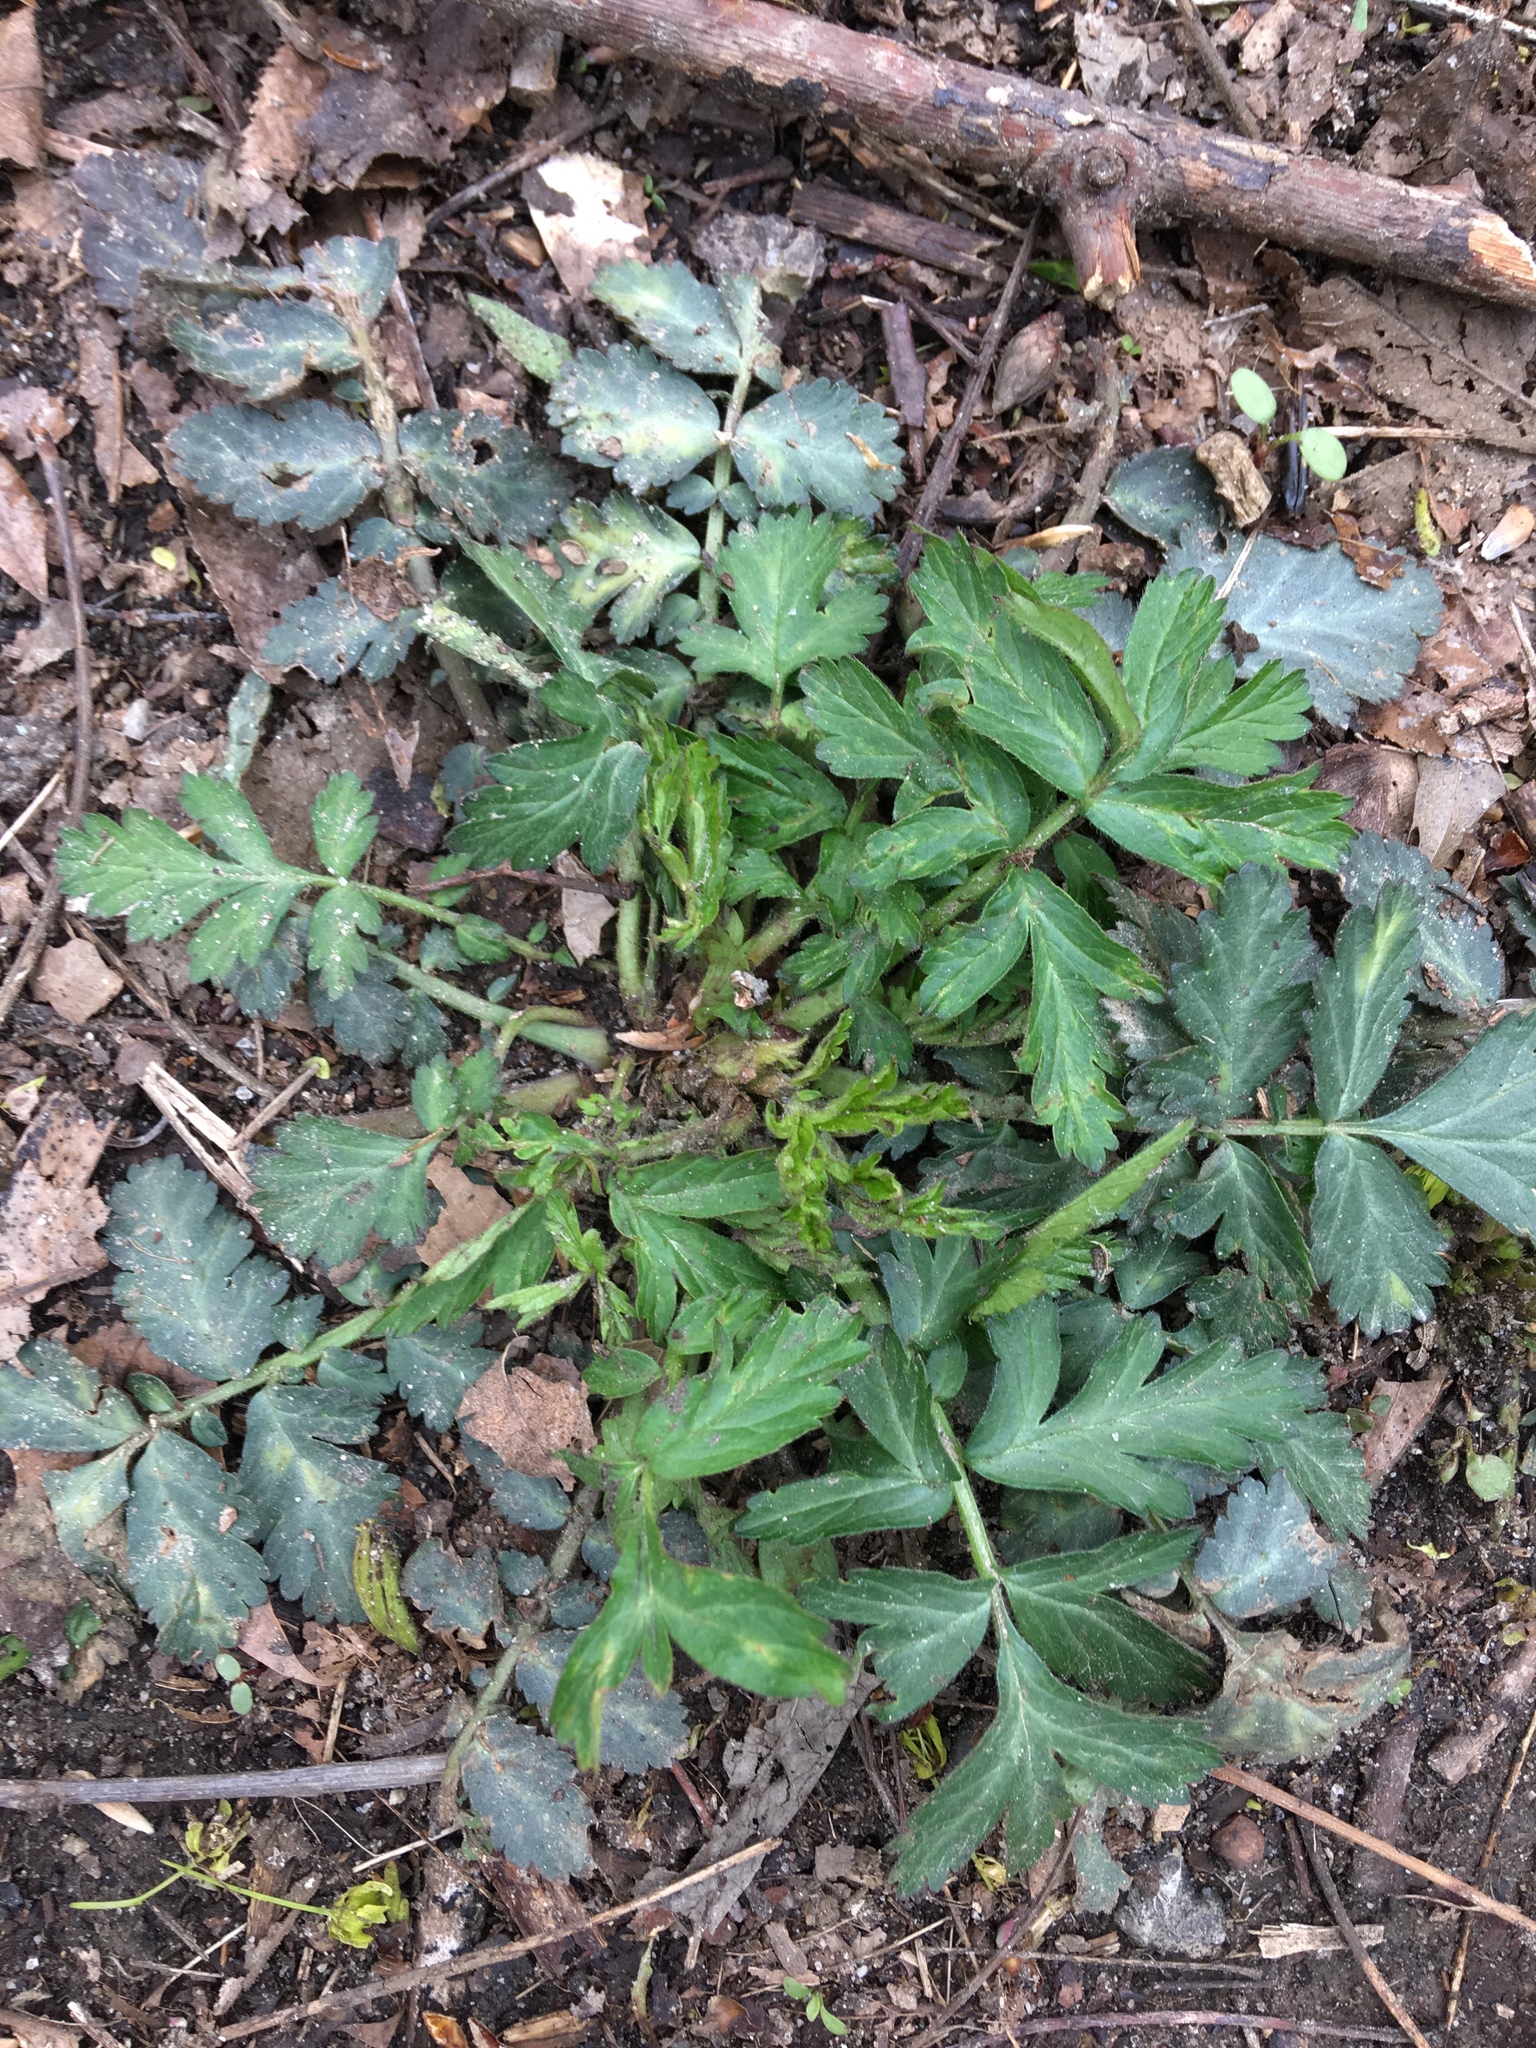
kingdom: Plantae
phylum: Tracheophyta
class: Magnoliopsida
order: Rosales
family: Rosaceae
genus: Geum
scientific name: Geum canadense
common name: White avens
